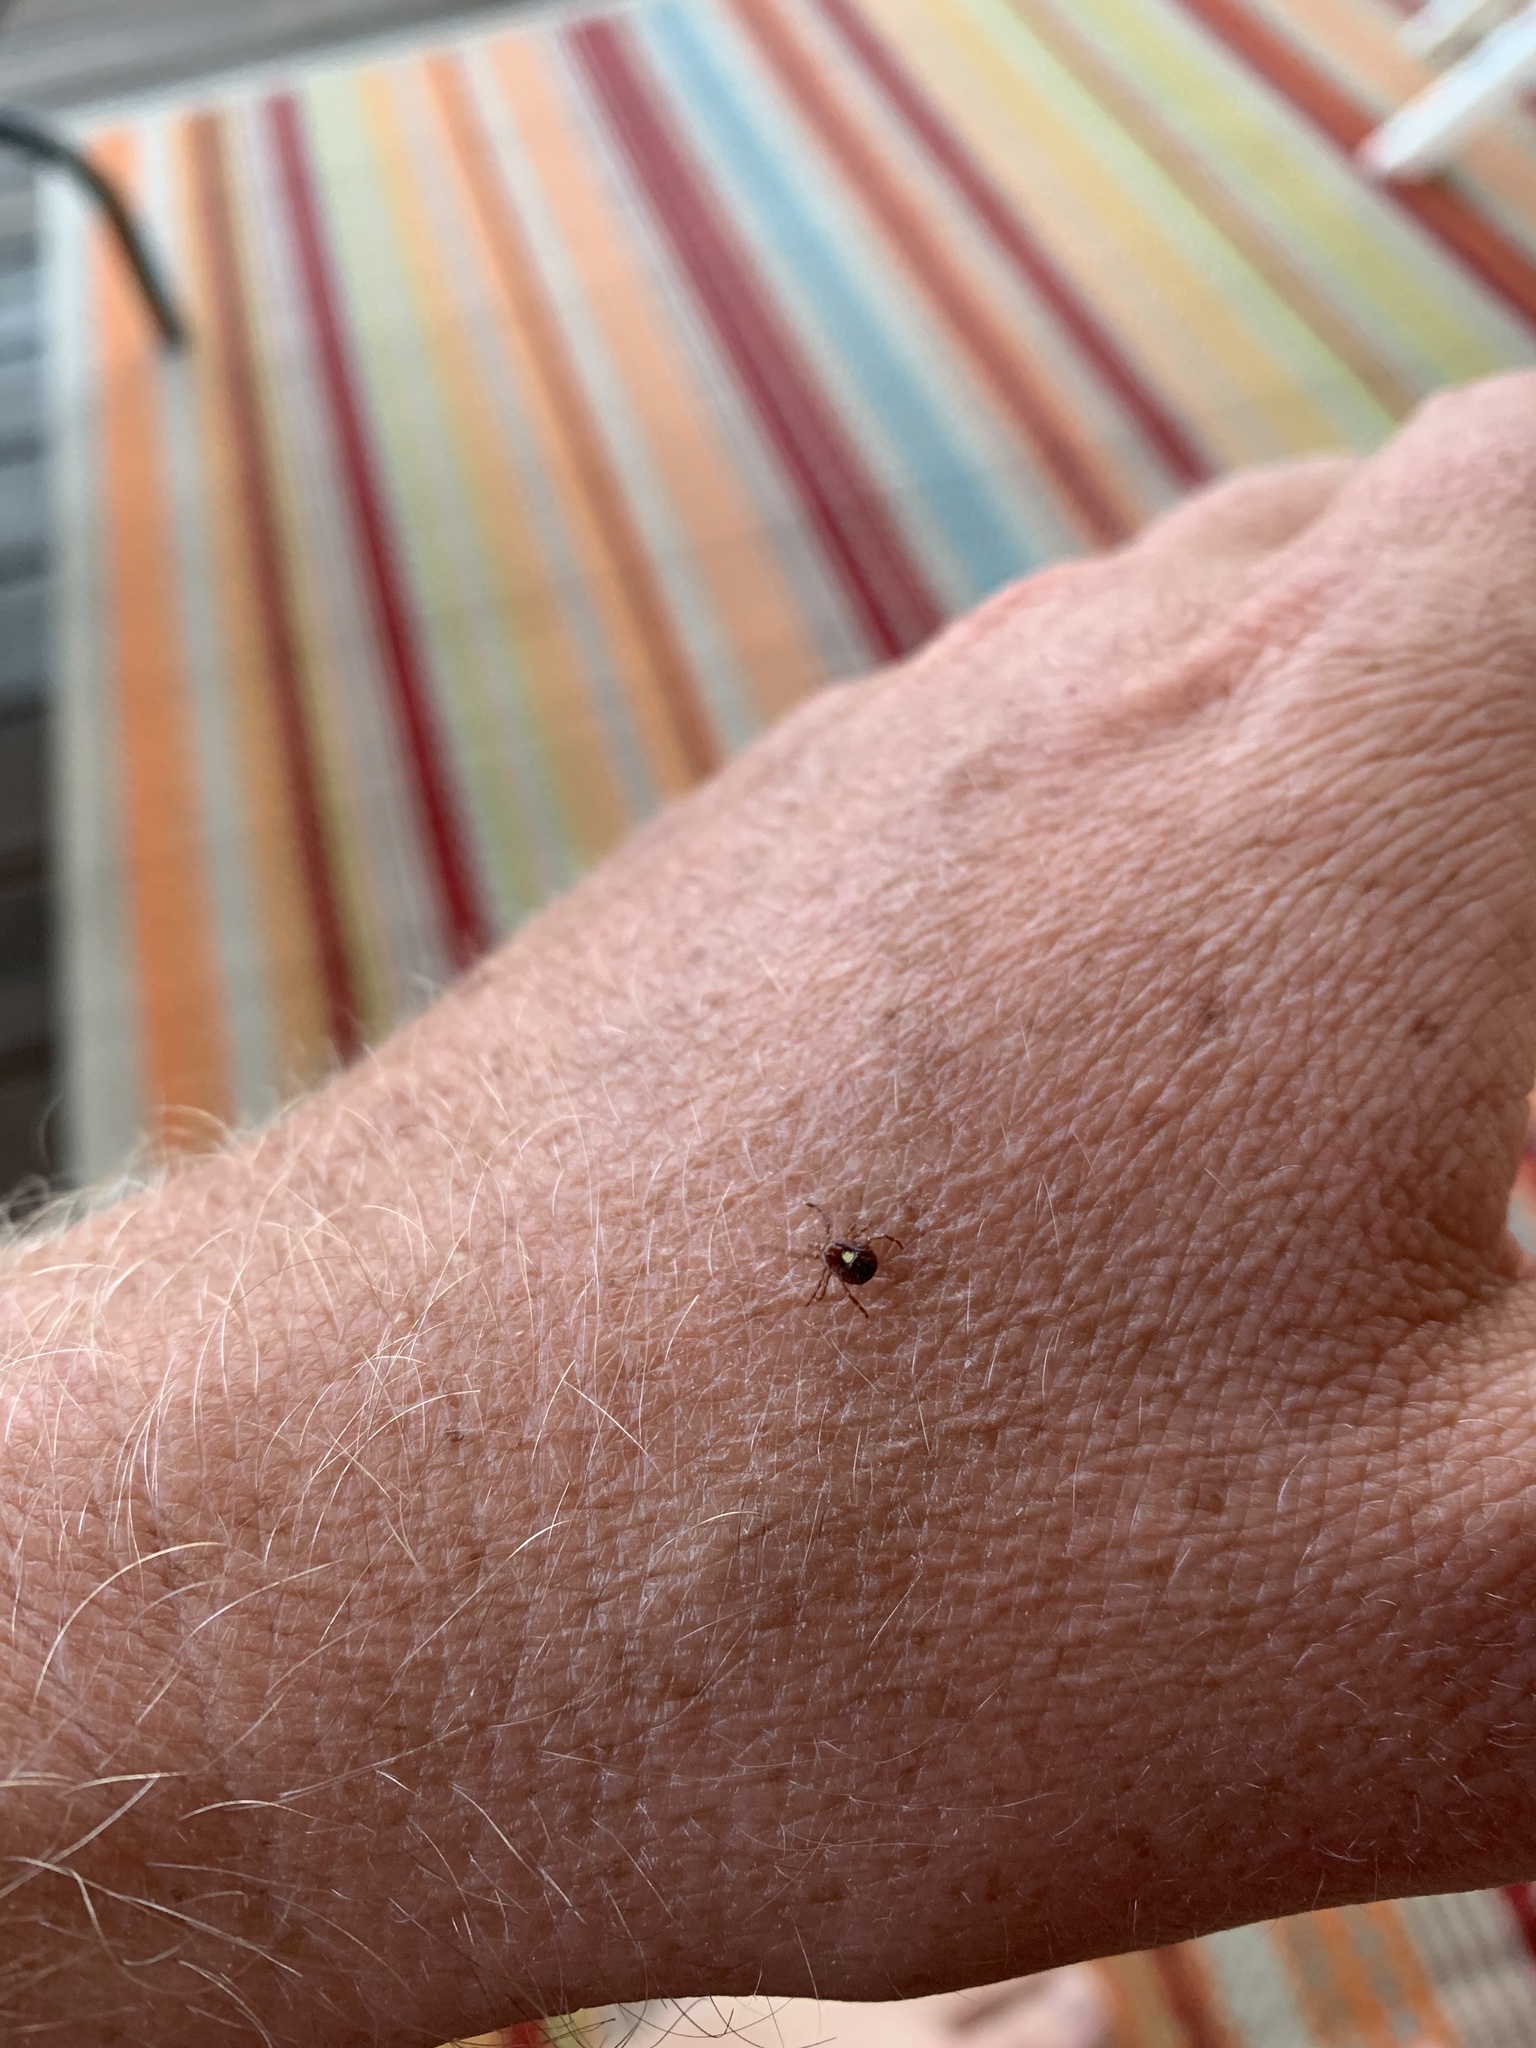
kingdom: Animalia
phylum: Arthropoda
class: Arachnida
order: Ixodida
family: Ixodidae
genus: Amblyomma
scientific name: Amblyomma americanum
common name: Lone star tick
